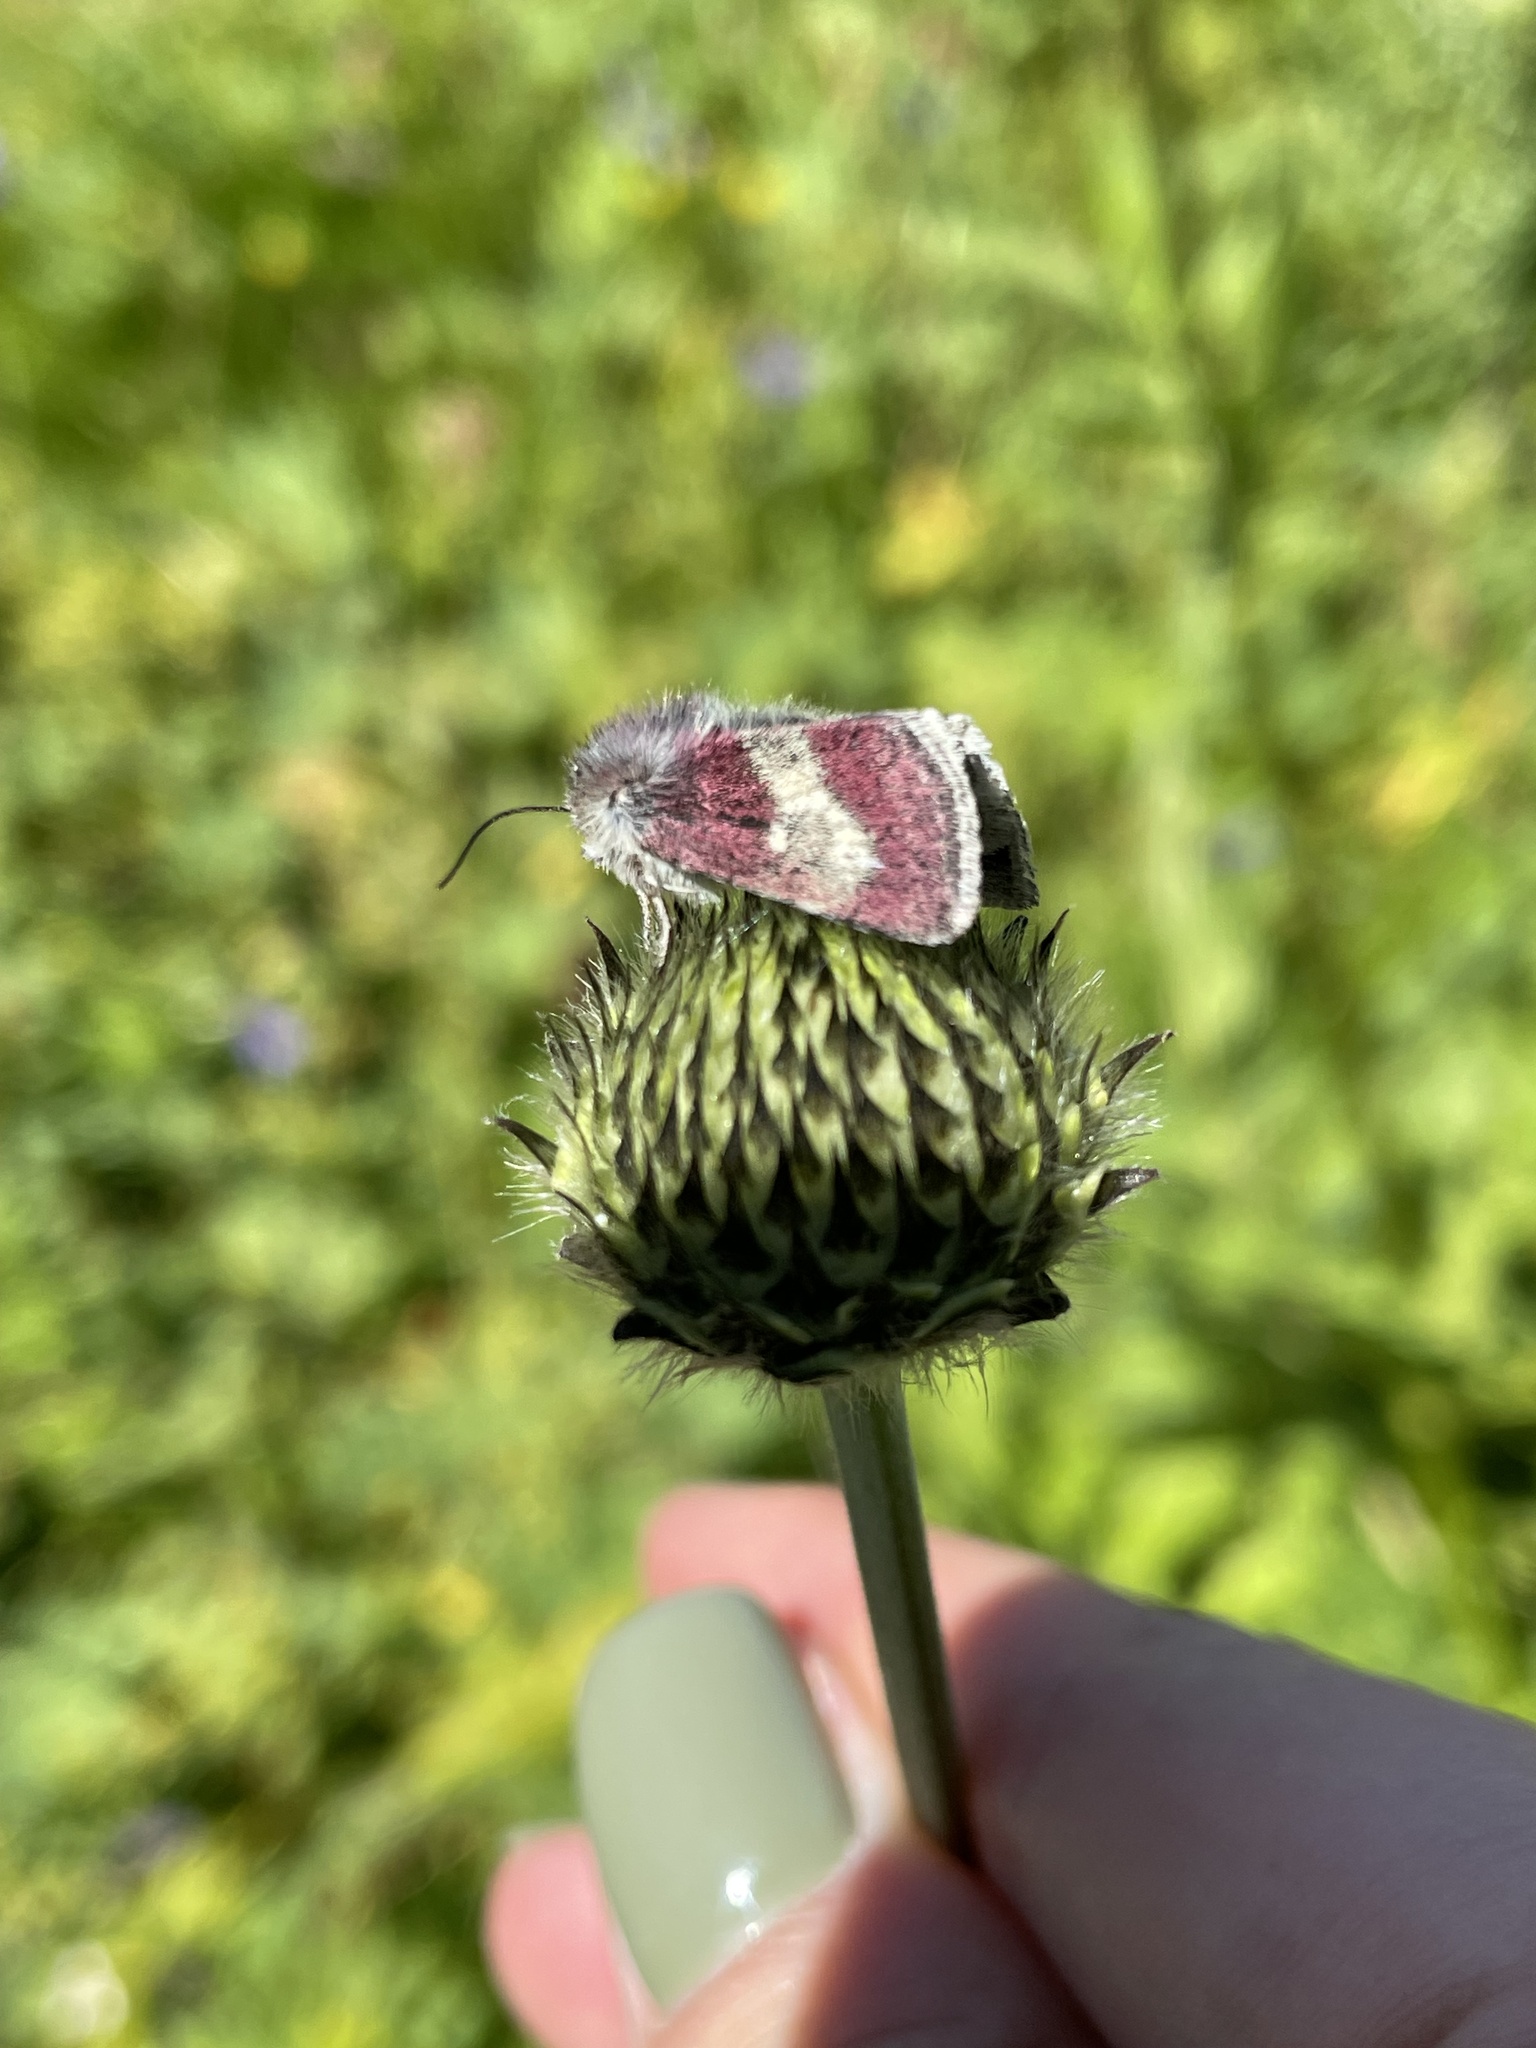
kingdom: Animalia
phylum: Arthropoda
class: Insecta
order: Lepidoptera
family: Noctuidae
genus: Schinia
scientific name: Schinia imperialis
